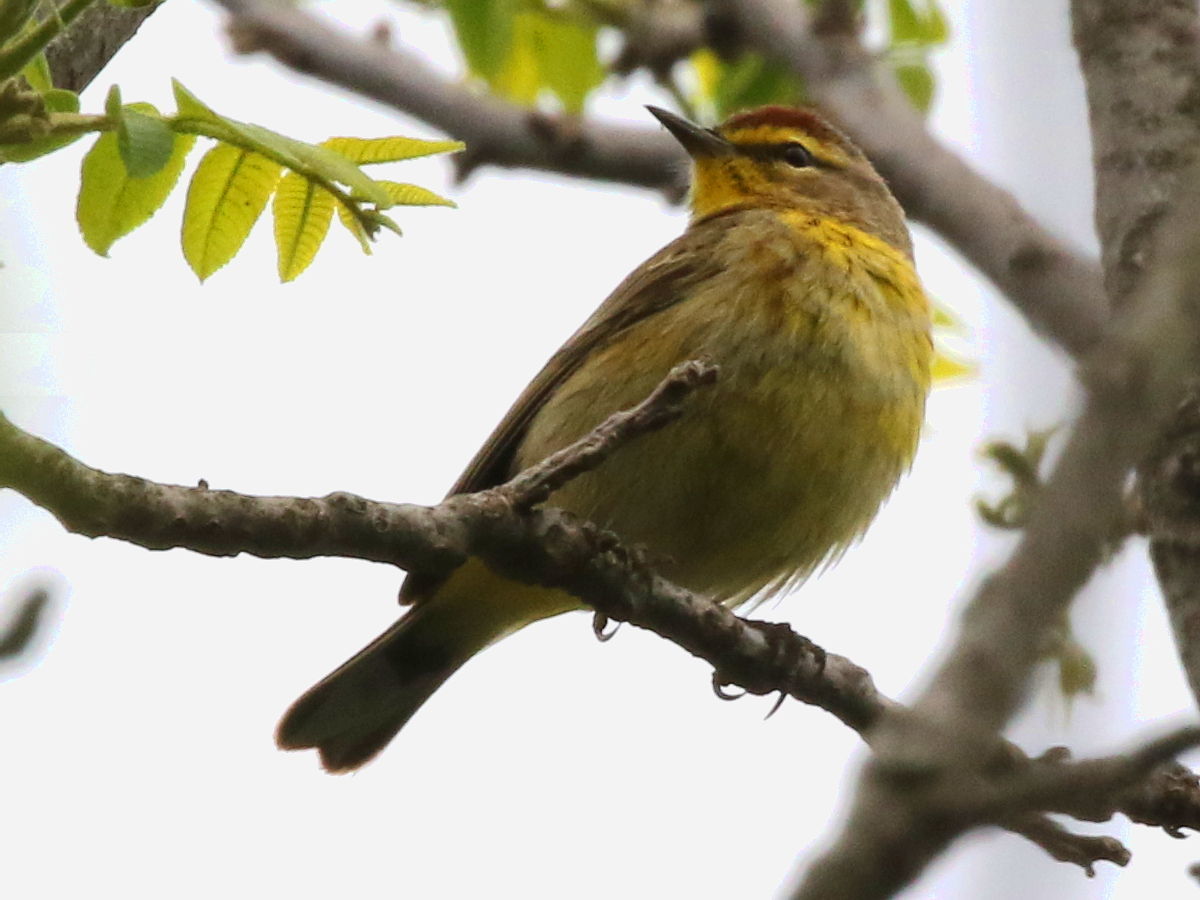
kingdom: Animalia
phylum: Chordata
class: Aves
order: Passeriformes
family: Parulidae
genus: Setophaga
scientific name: Setophaga palmarum
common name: Palm warbler
